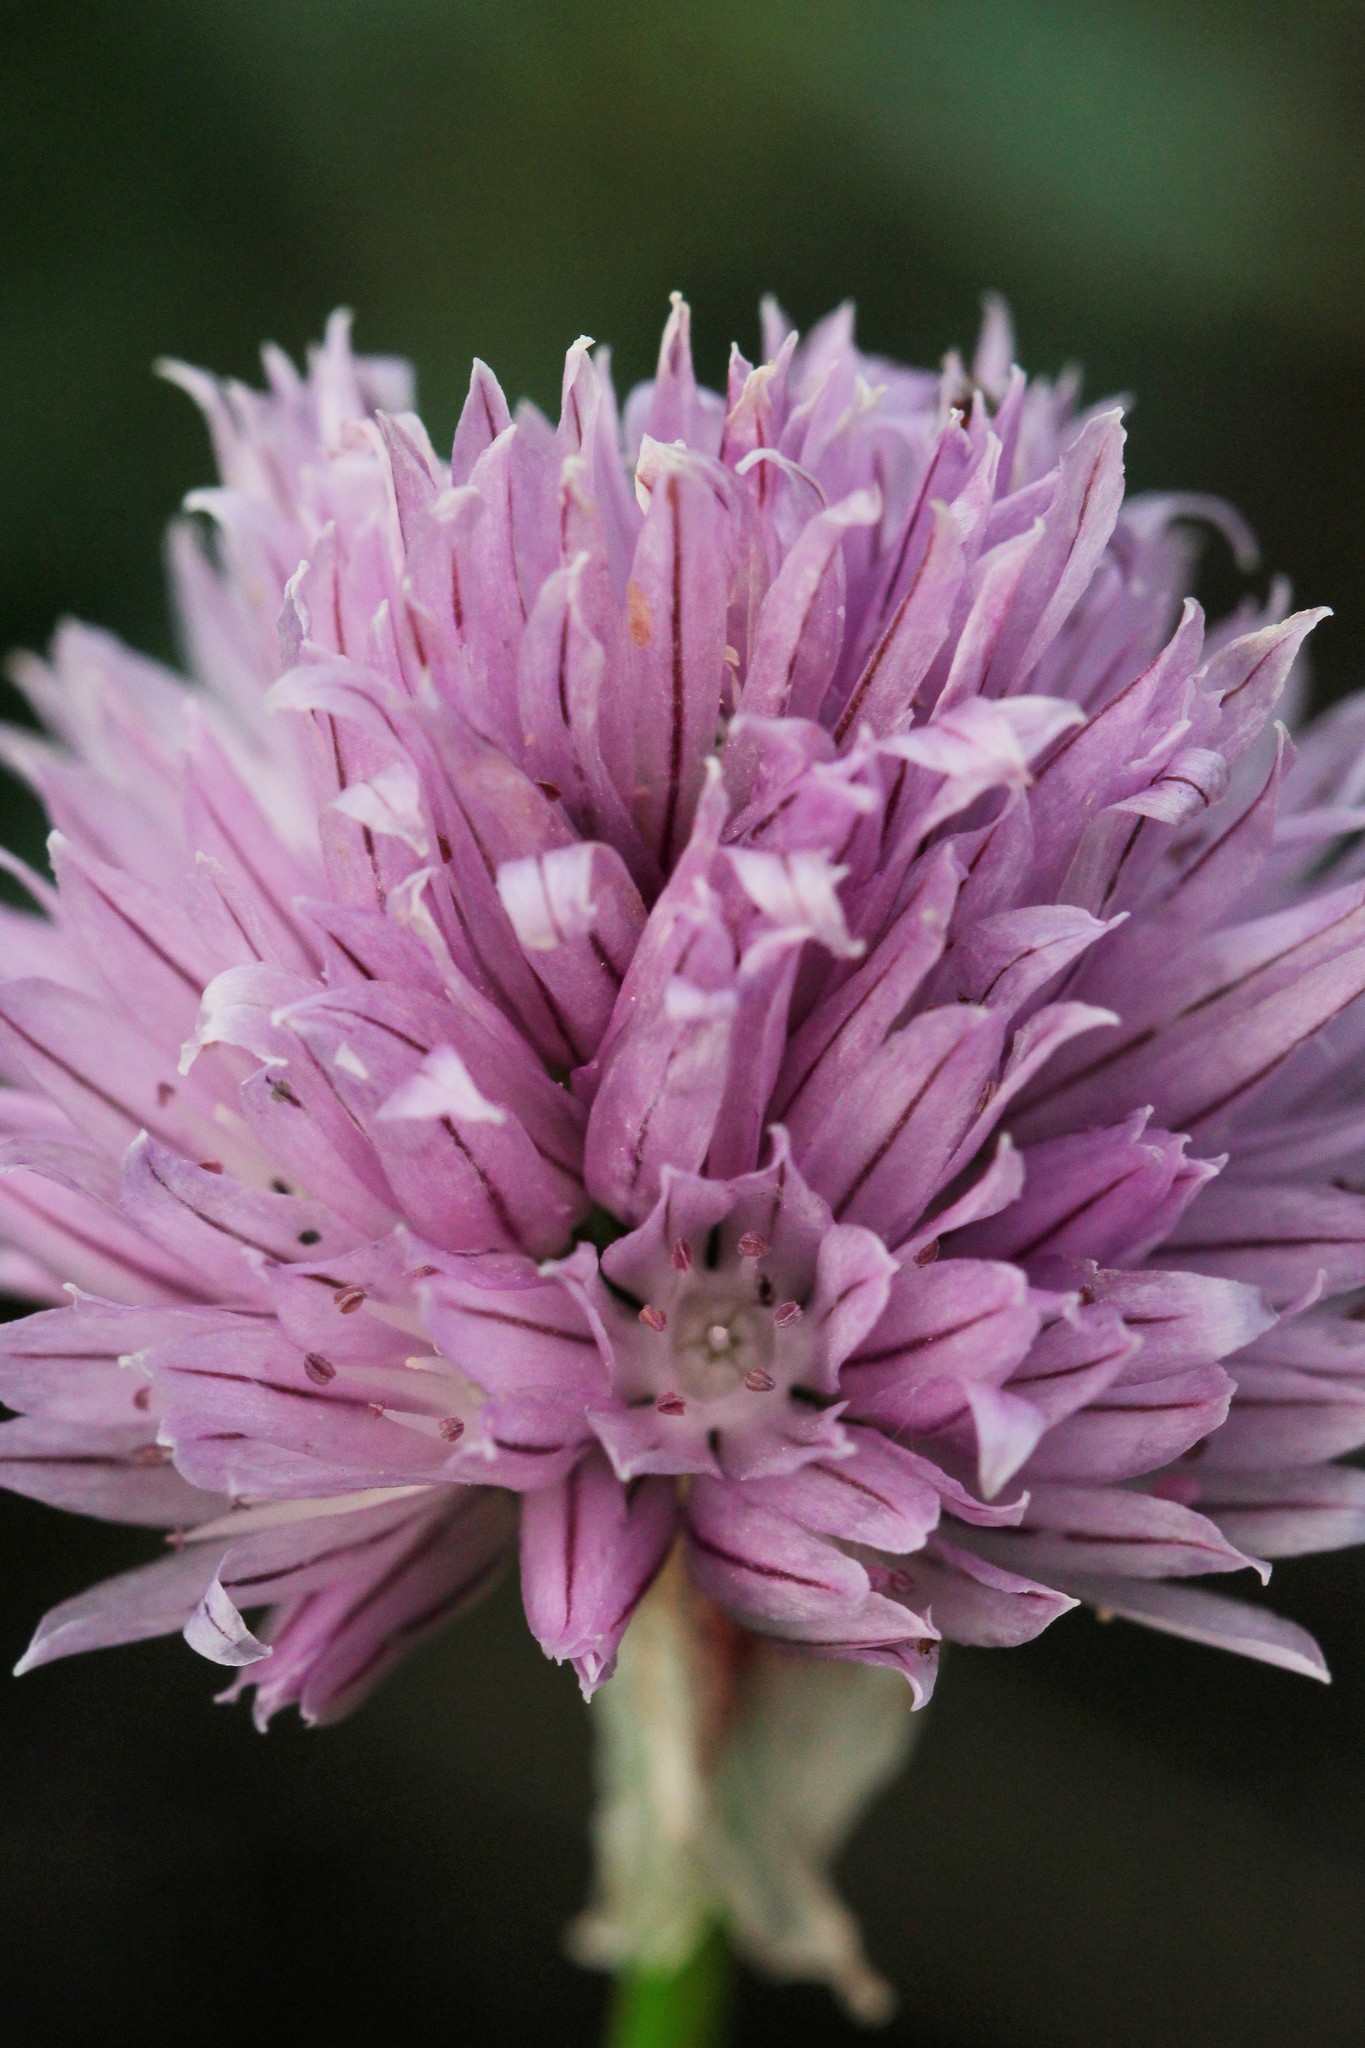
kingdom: Plantae
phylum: Tracheophyta
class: Liliopsida
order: Asparagales
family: Amaryllidaceae
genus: Allium
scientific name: Allium schoenoprasum
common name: Chives
